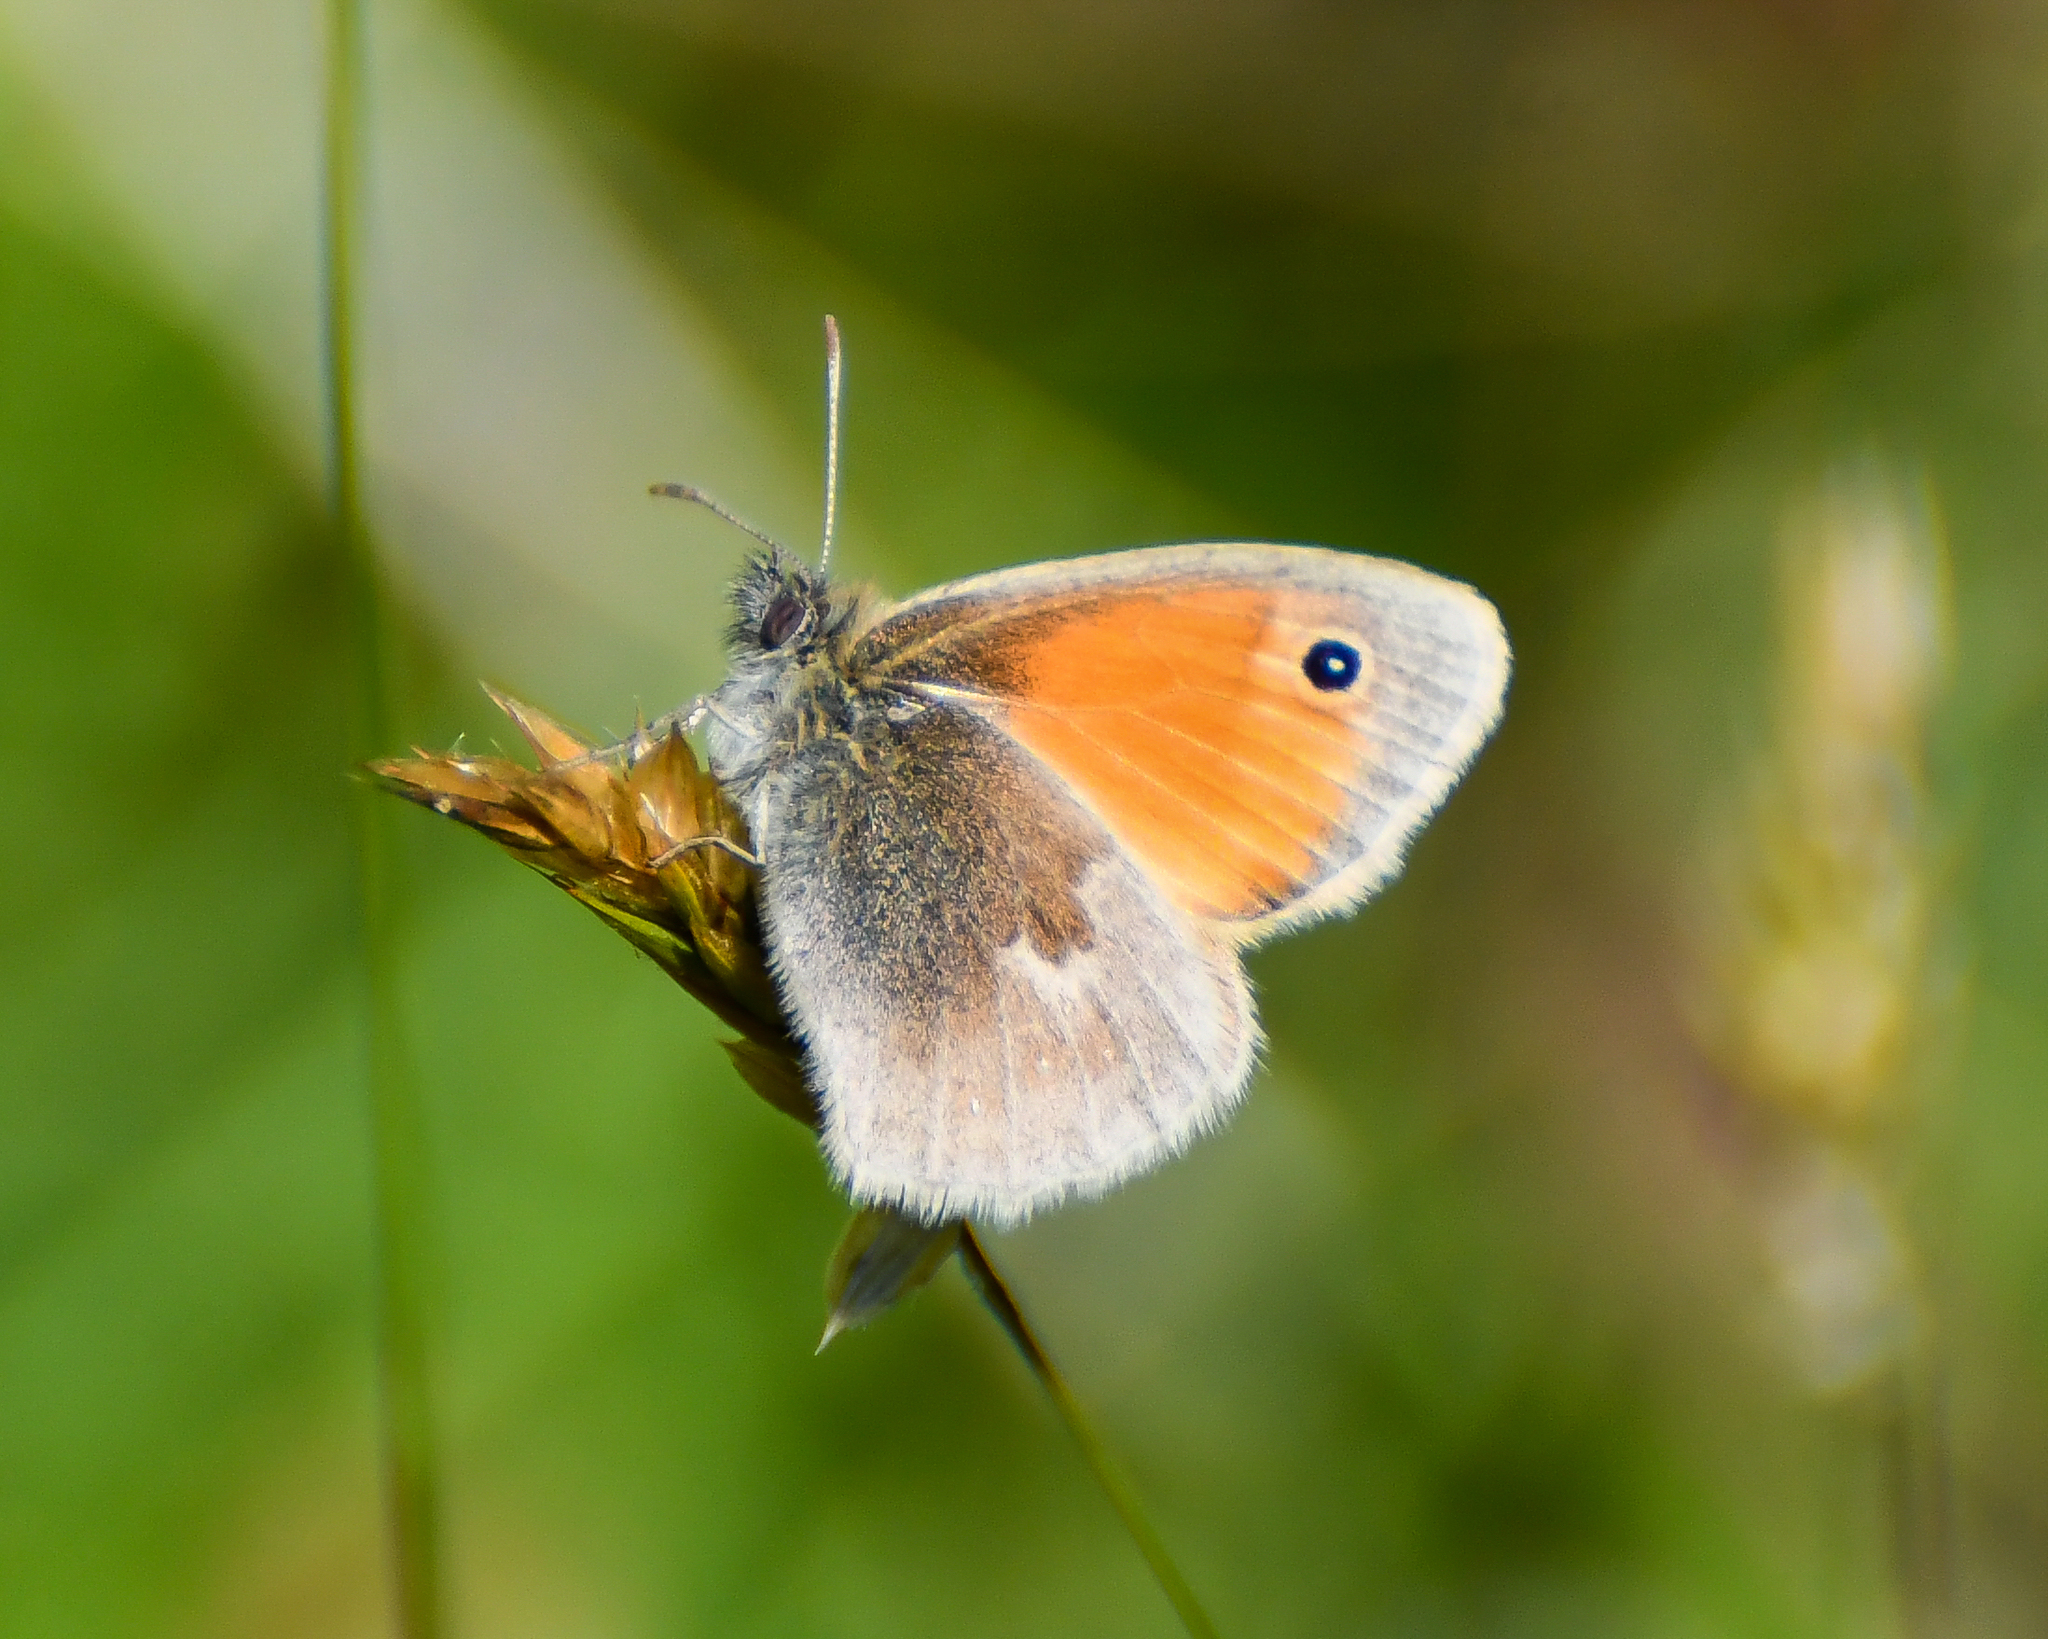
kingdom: Animalia
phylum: Arthropoda
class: Insecta
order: Lepidoptera
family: Nymphalidae
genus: Coenonympha
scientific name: Coenonympha pamphilus
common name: Small heath
